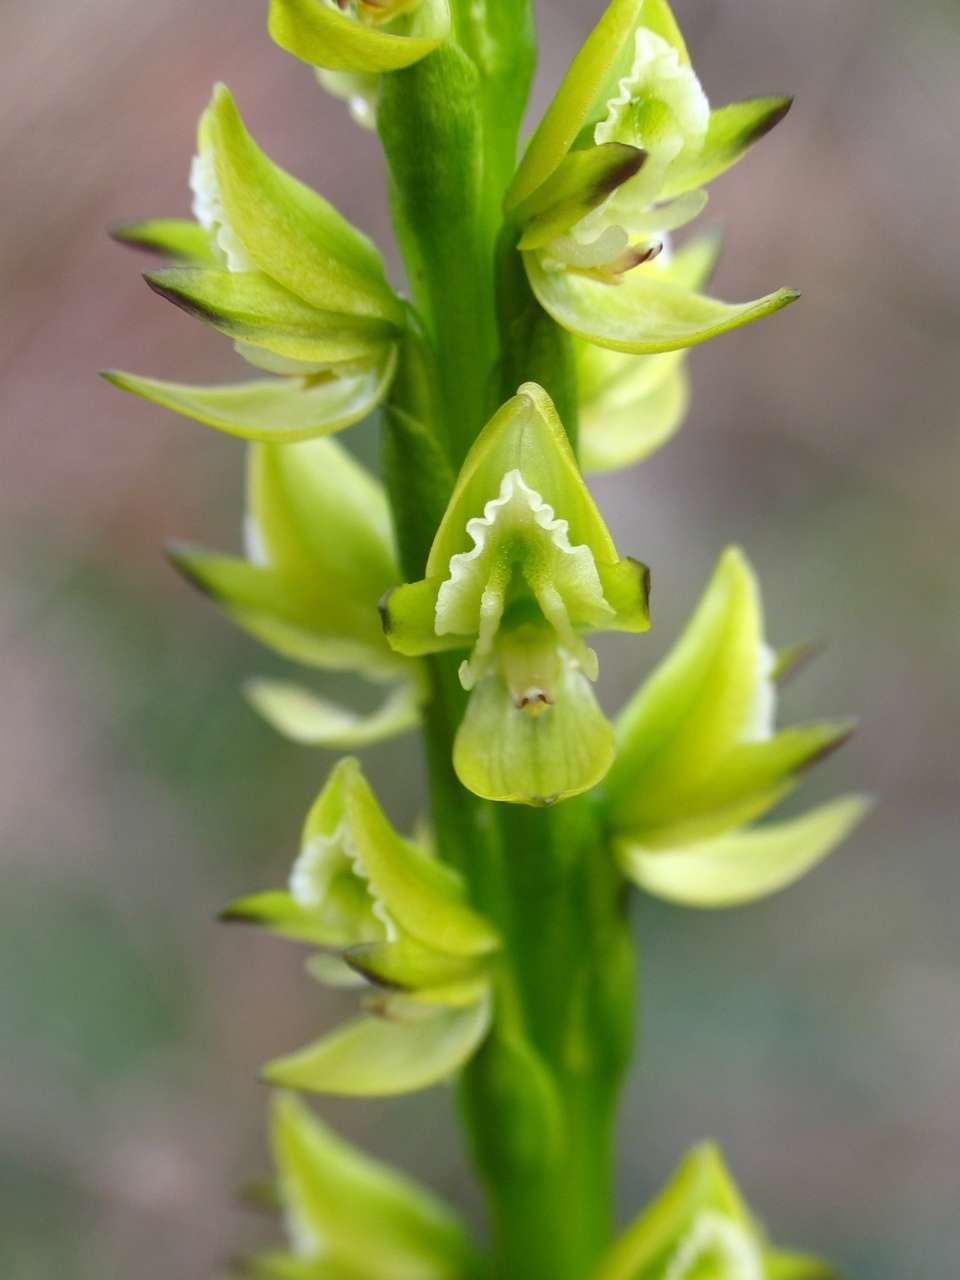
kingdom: Plantae
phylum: Tracheophyta
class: Liliopsida
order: Asparagales
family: Orchidaceae
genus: Prasophyllum
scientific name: Prasophyllum elatum
